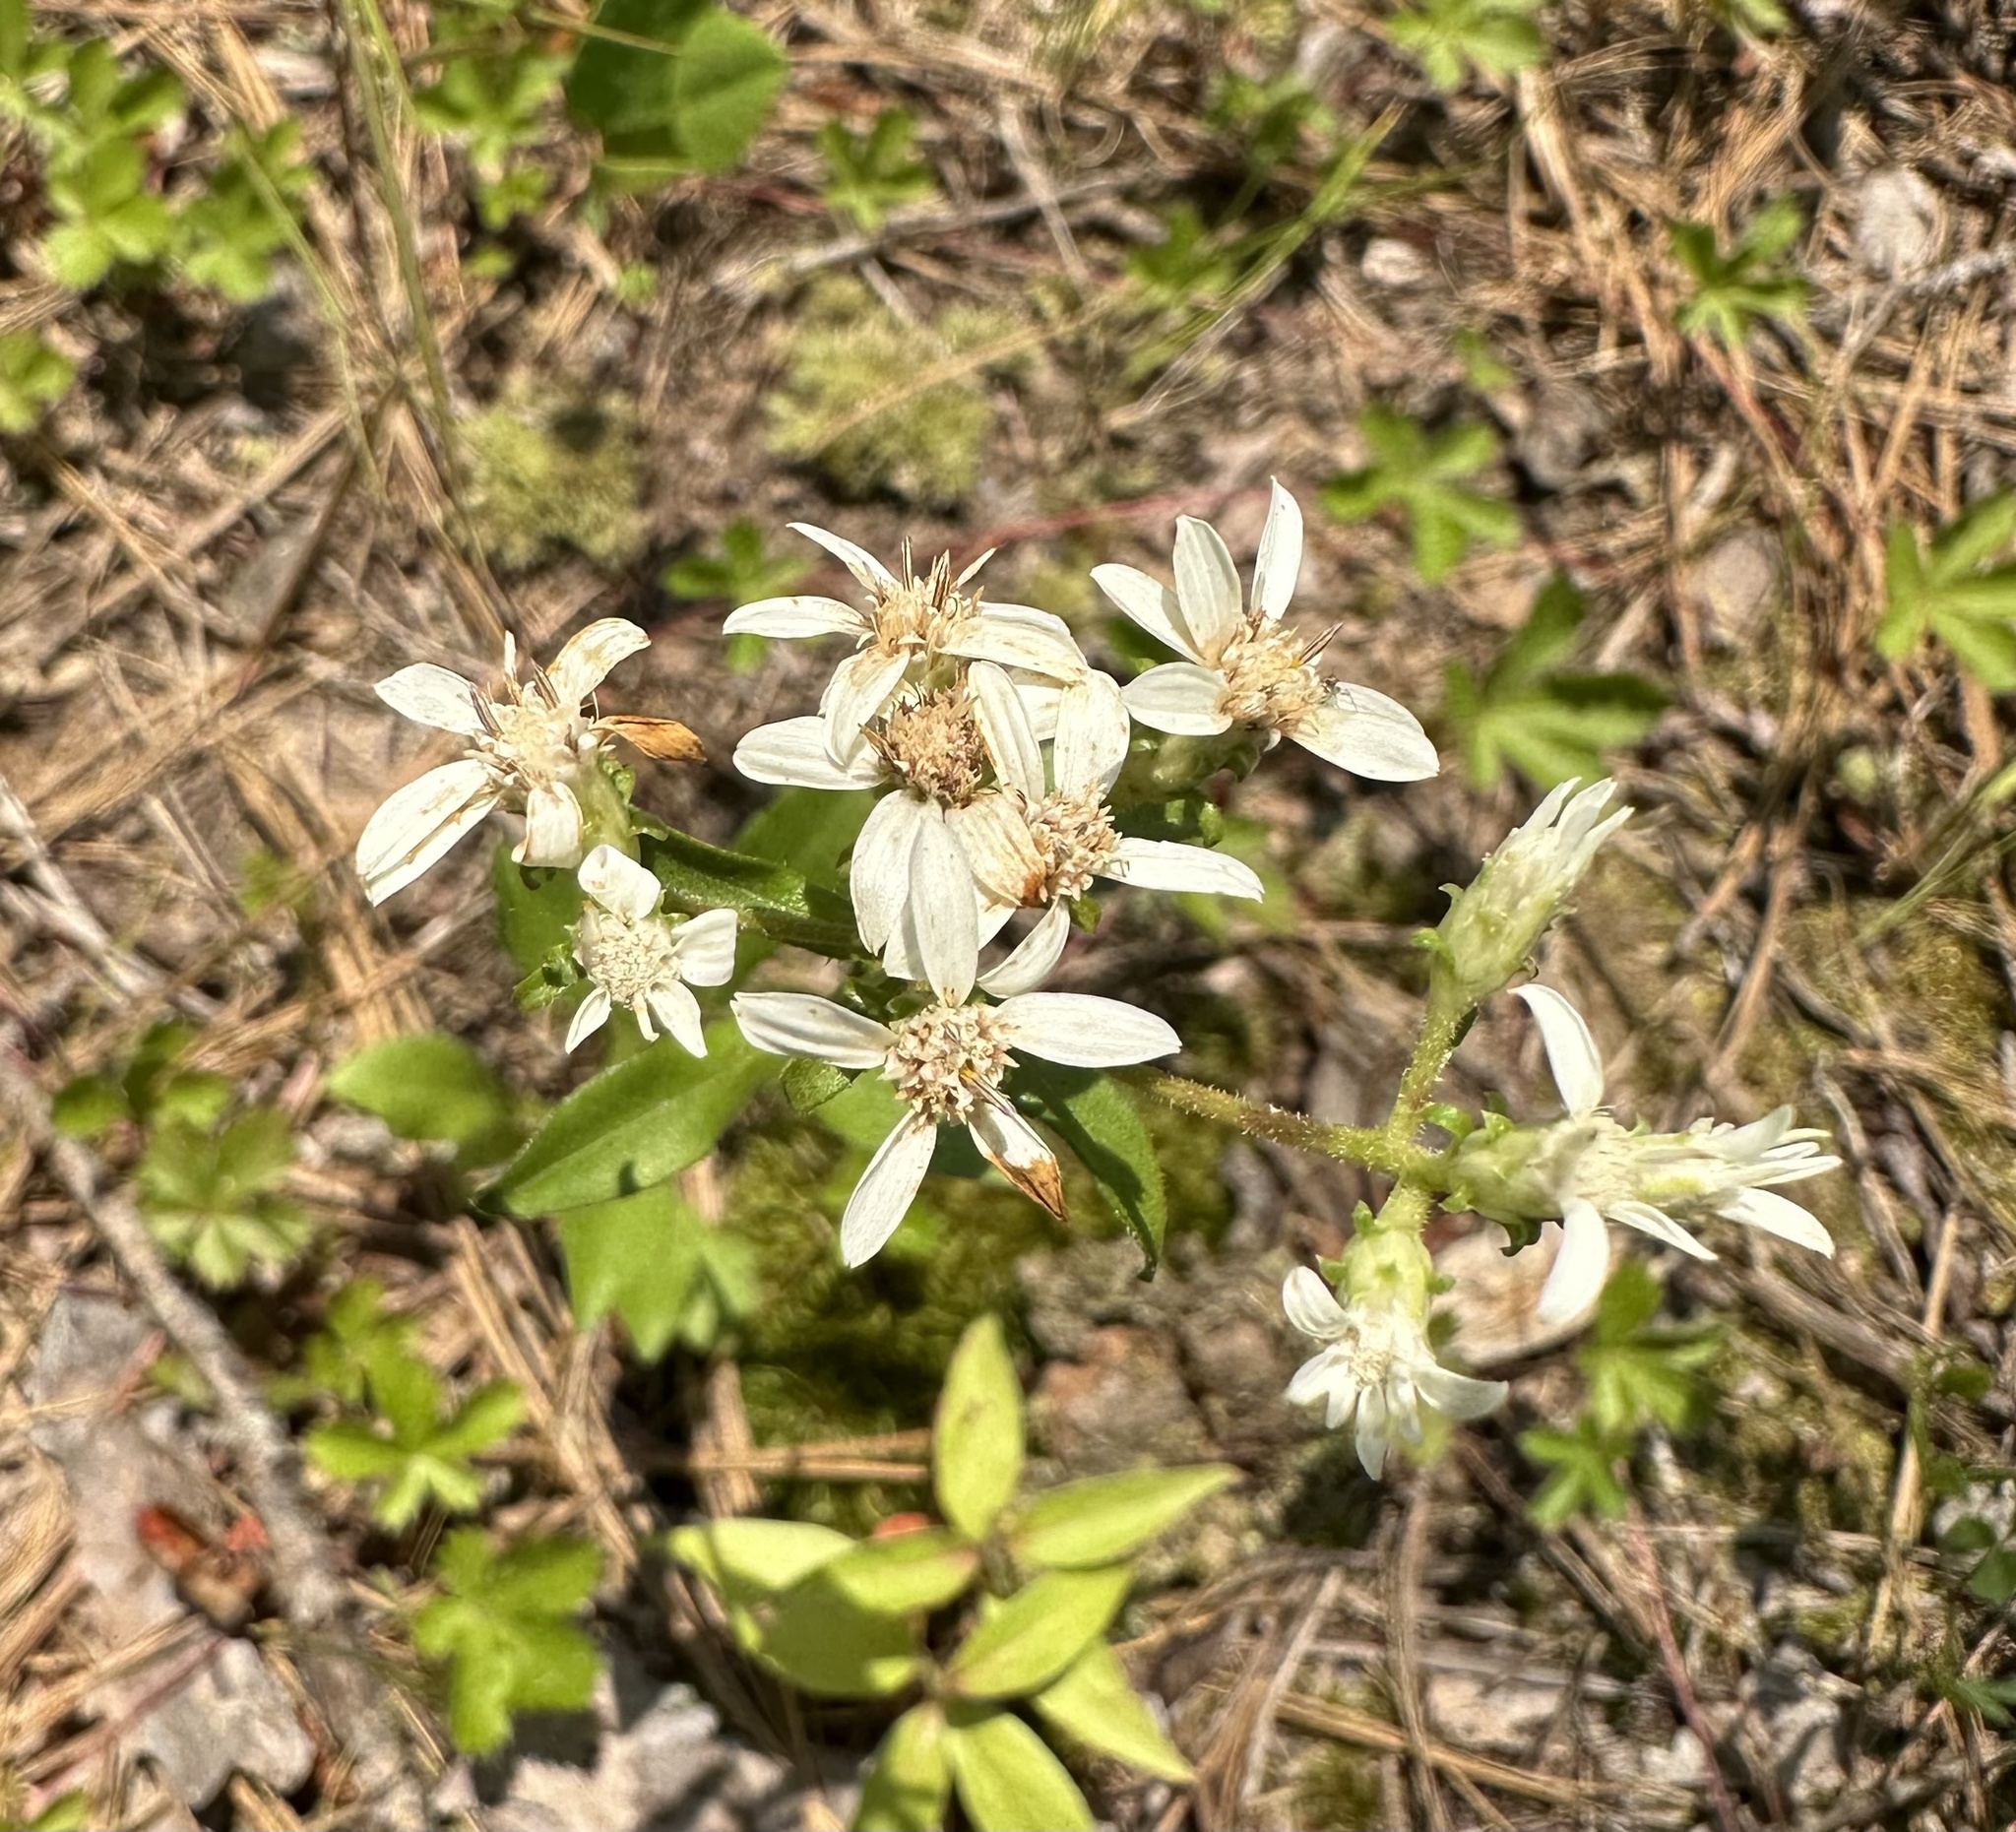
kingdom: Plantae
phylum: Tracheophyta
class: Magnoliopsida
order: Asterales
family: Asteraceae
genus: Sericocarpus
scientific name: Sericocarpus asteroides
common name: Toothed white-top aster
